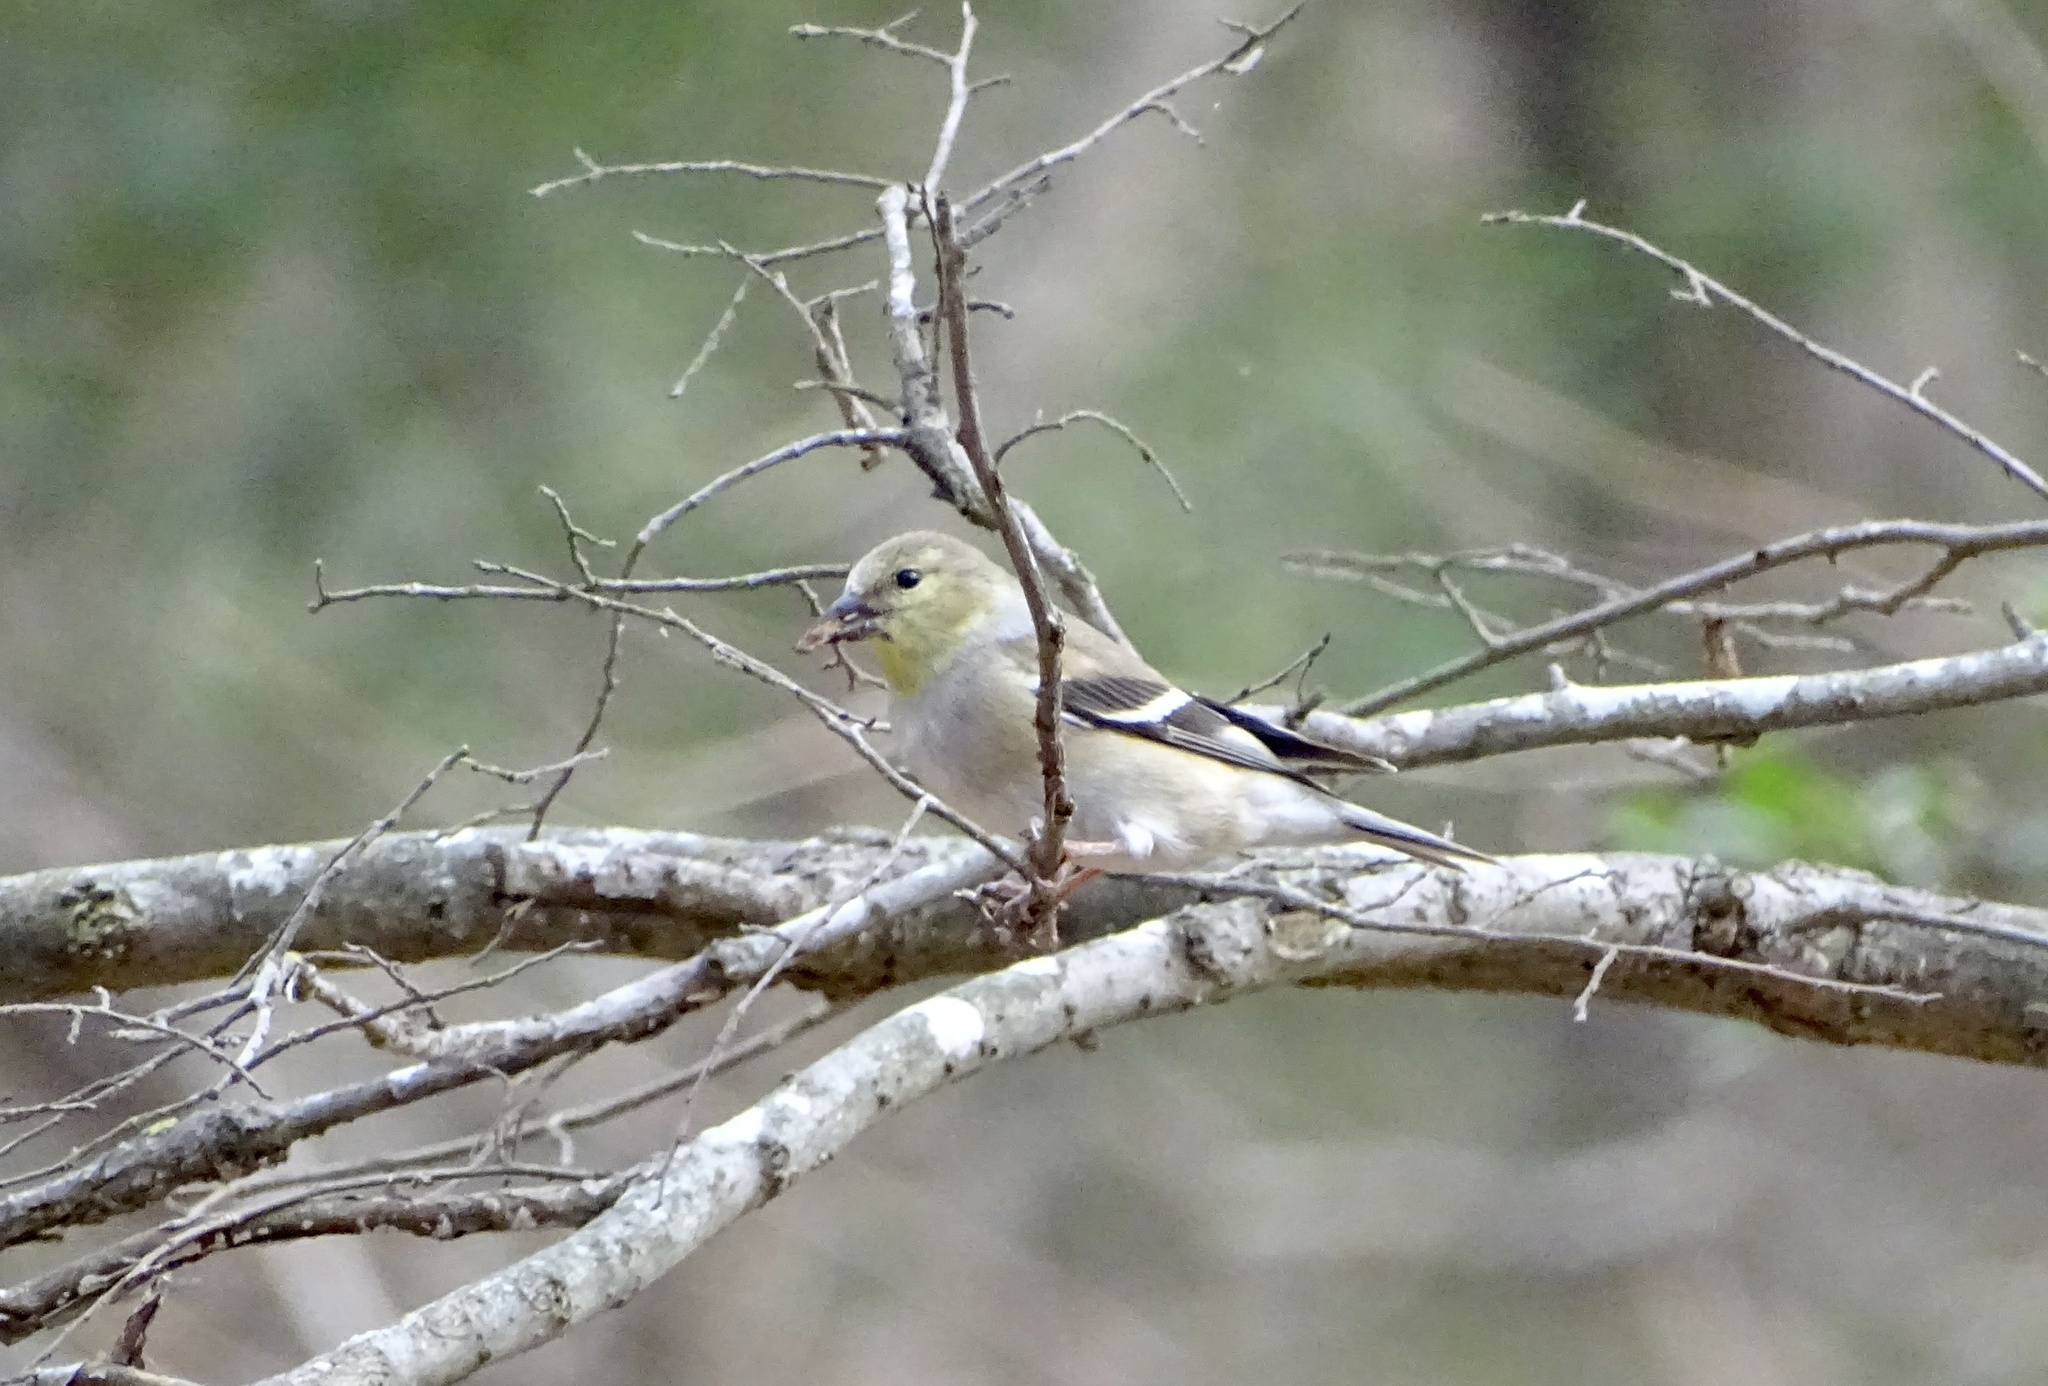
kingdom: Animalia
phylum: Chordata
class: Aves
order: Passeriformes
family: Fringillidae
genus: Spinus
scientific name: Spinus tristis
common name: American goldfinch
